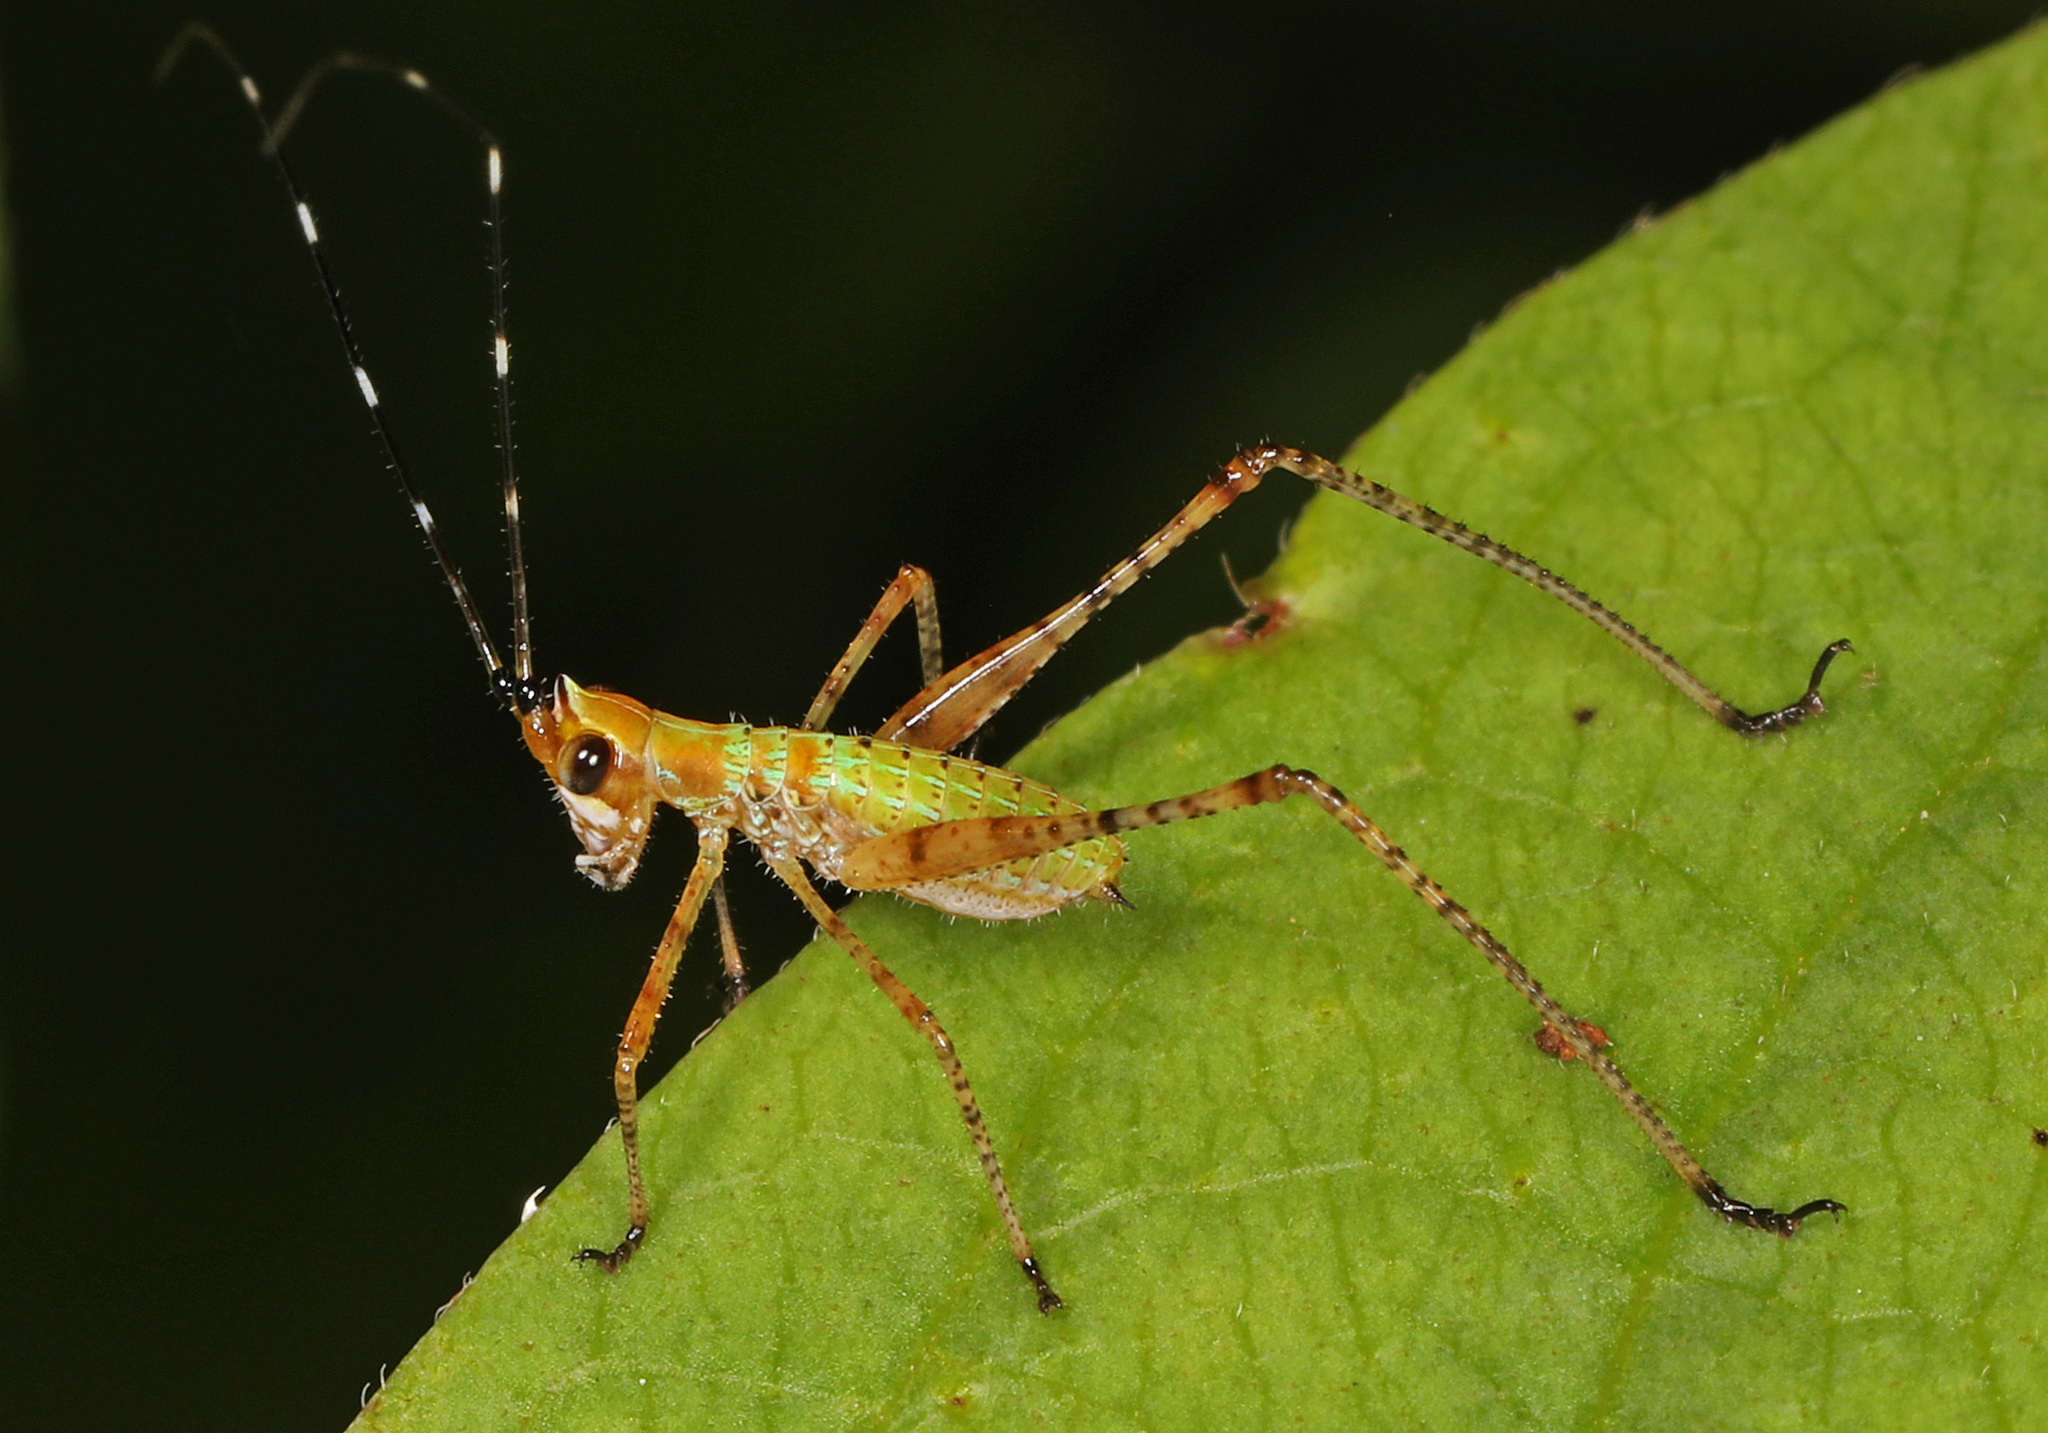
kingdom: Animalia
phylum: Arthropoda
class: Insecta
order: Orthoptera
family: Tettigoniidae
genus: Scudderia
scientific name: Scudderia
